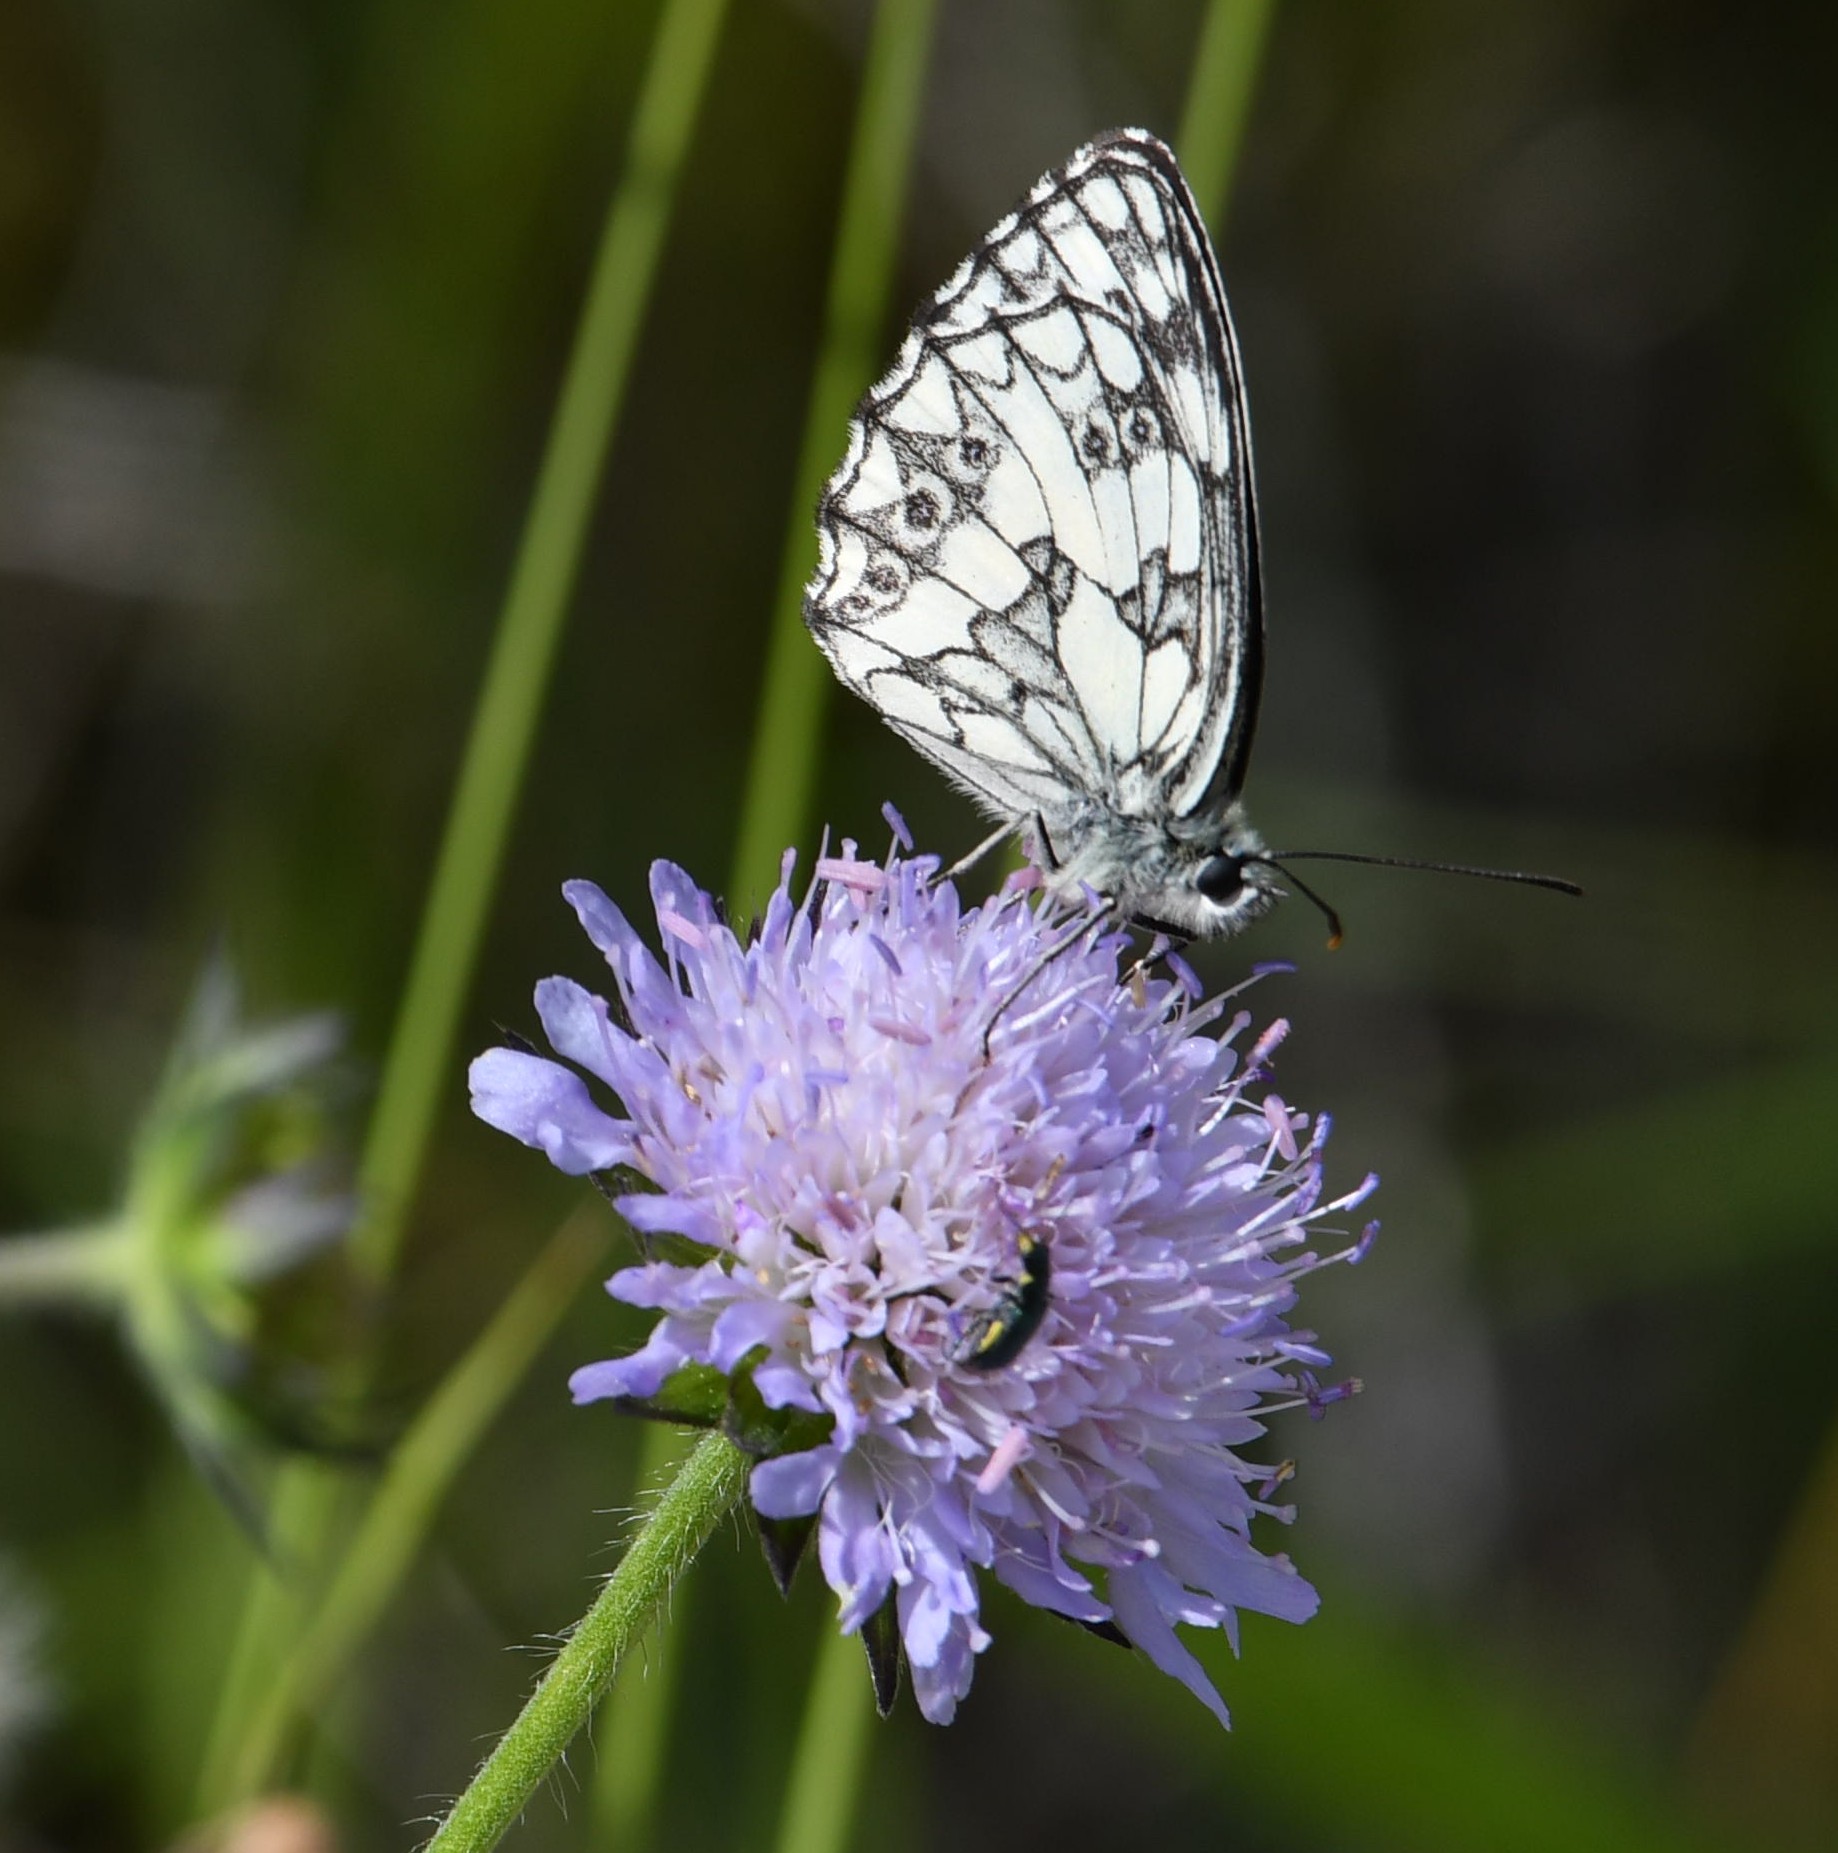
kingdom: Animalia
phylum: Arthropoda
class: Insecta
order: Lepidoptera
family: Nymphalidae
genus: Melanargia
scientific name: Melanargia galathea
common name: Marbled white
